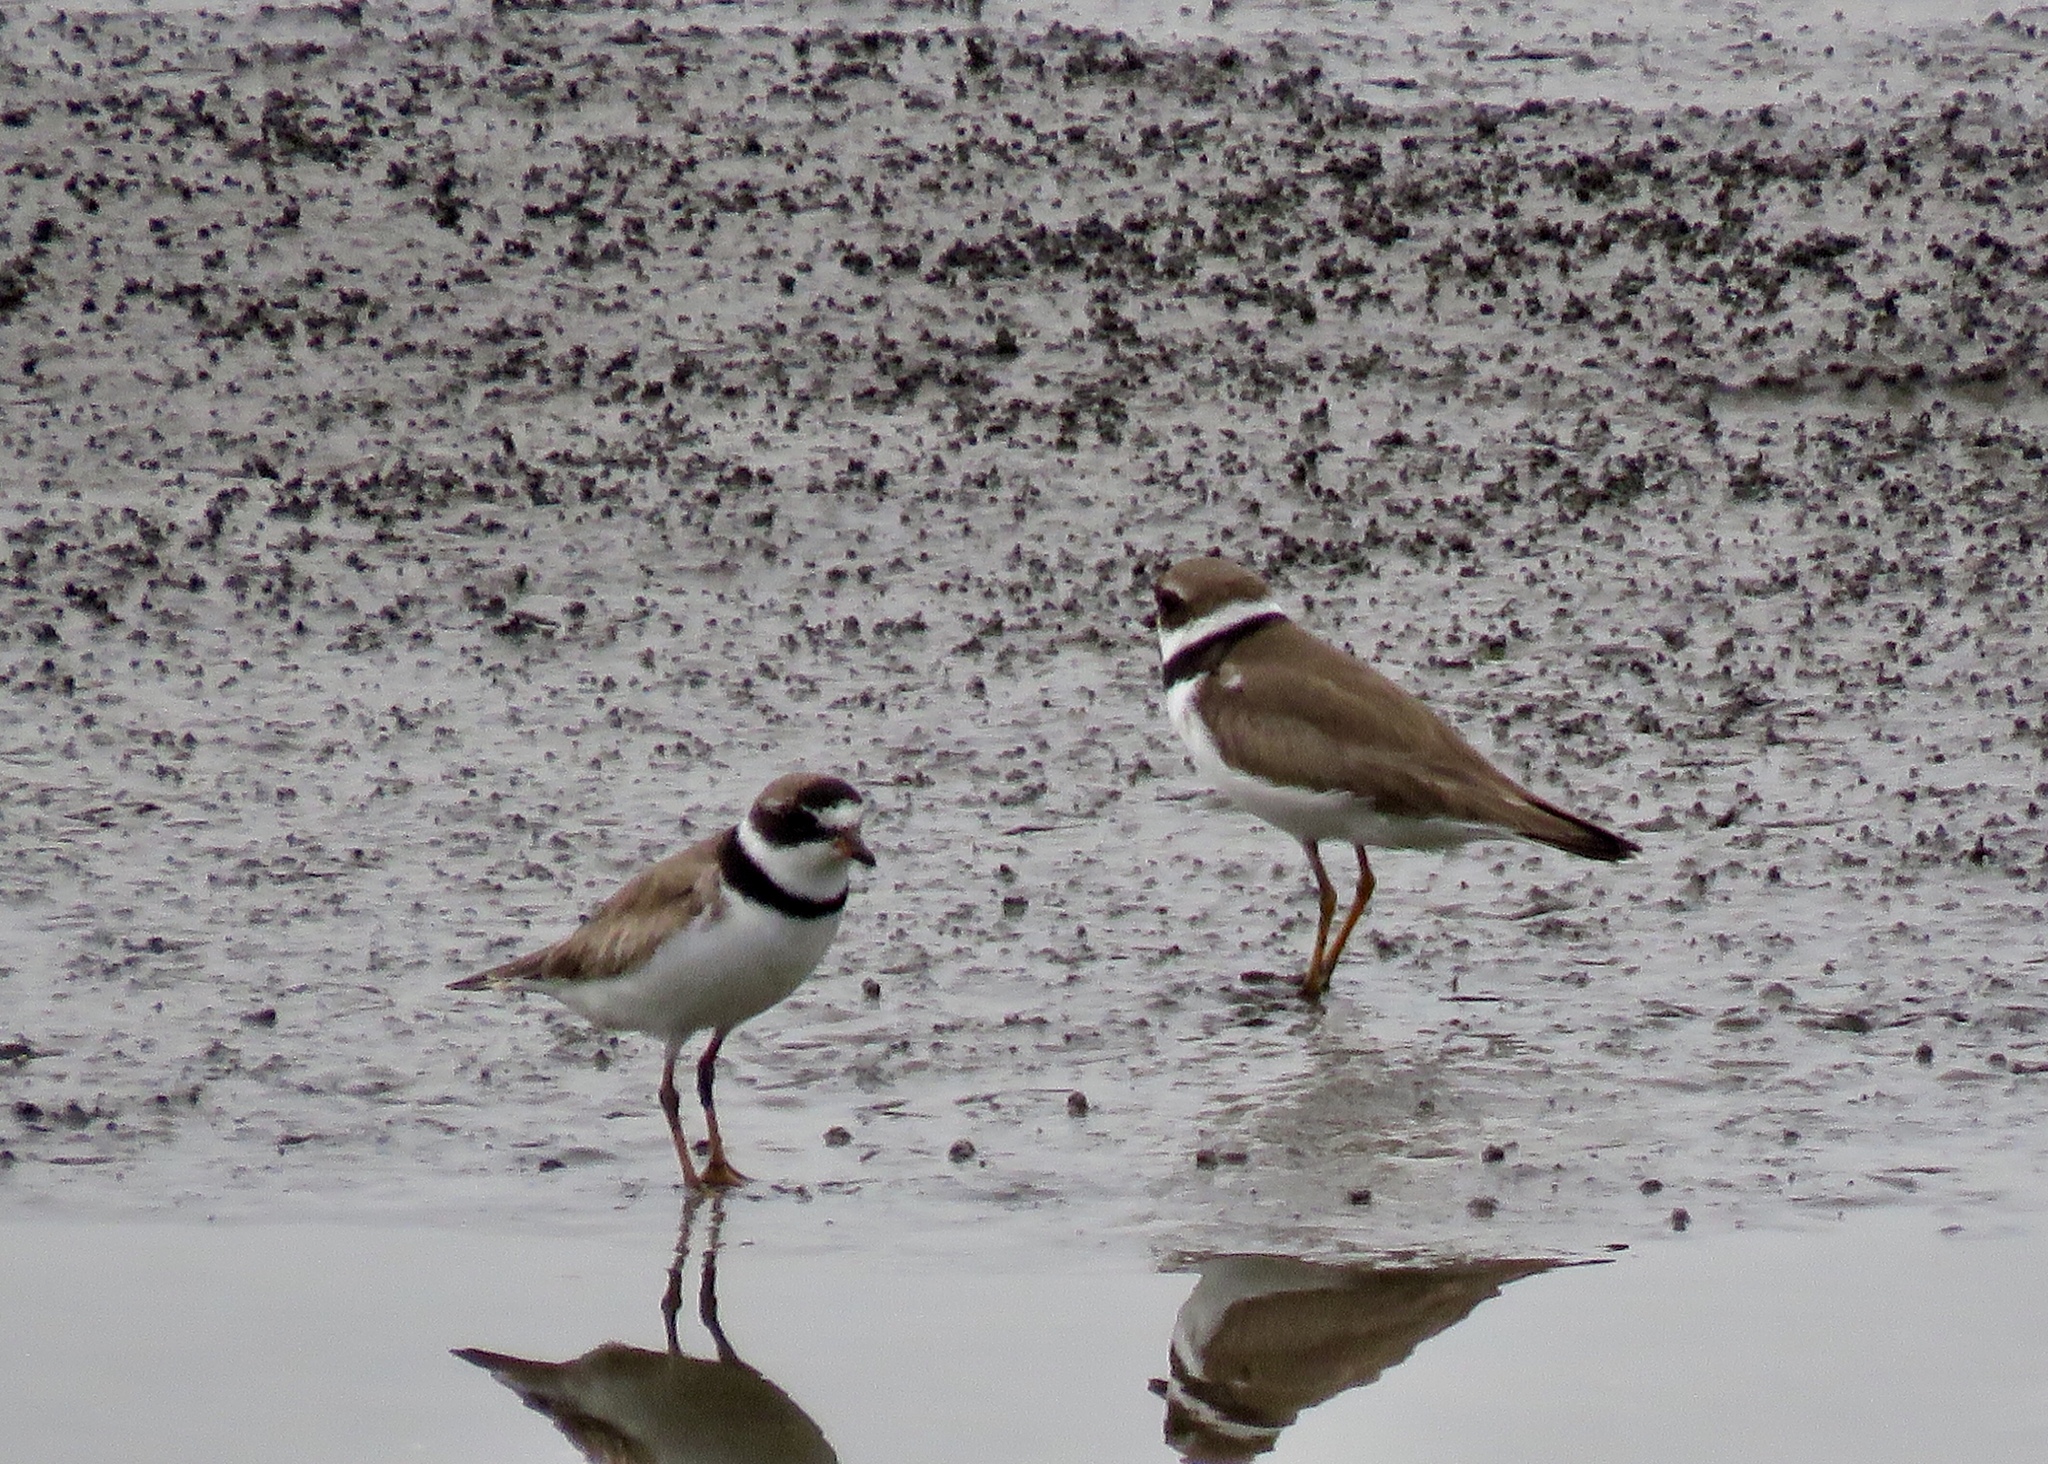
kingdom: Animalia
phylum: Chordata
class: Aves
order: Charadriiformes
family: Charadriidae
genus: Charadrius
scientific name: Charadrius semipalmatus
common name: Semipalmated plover
